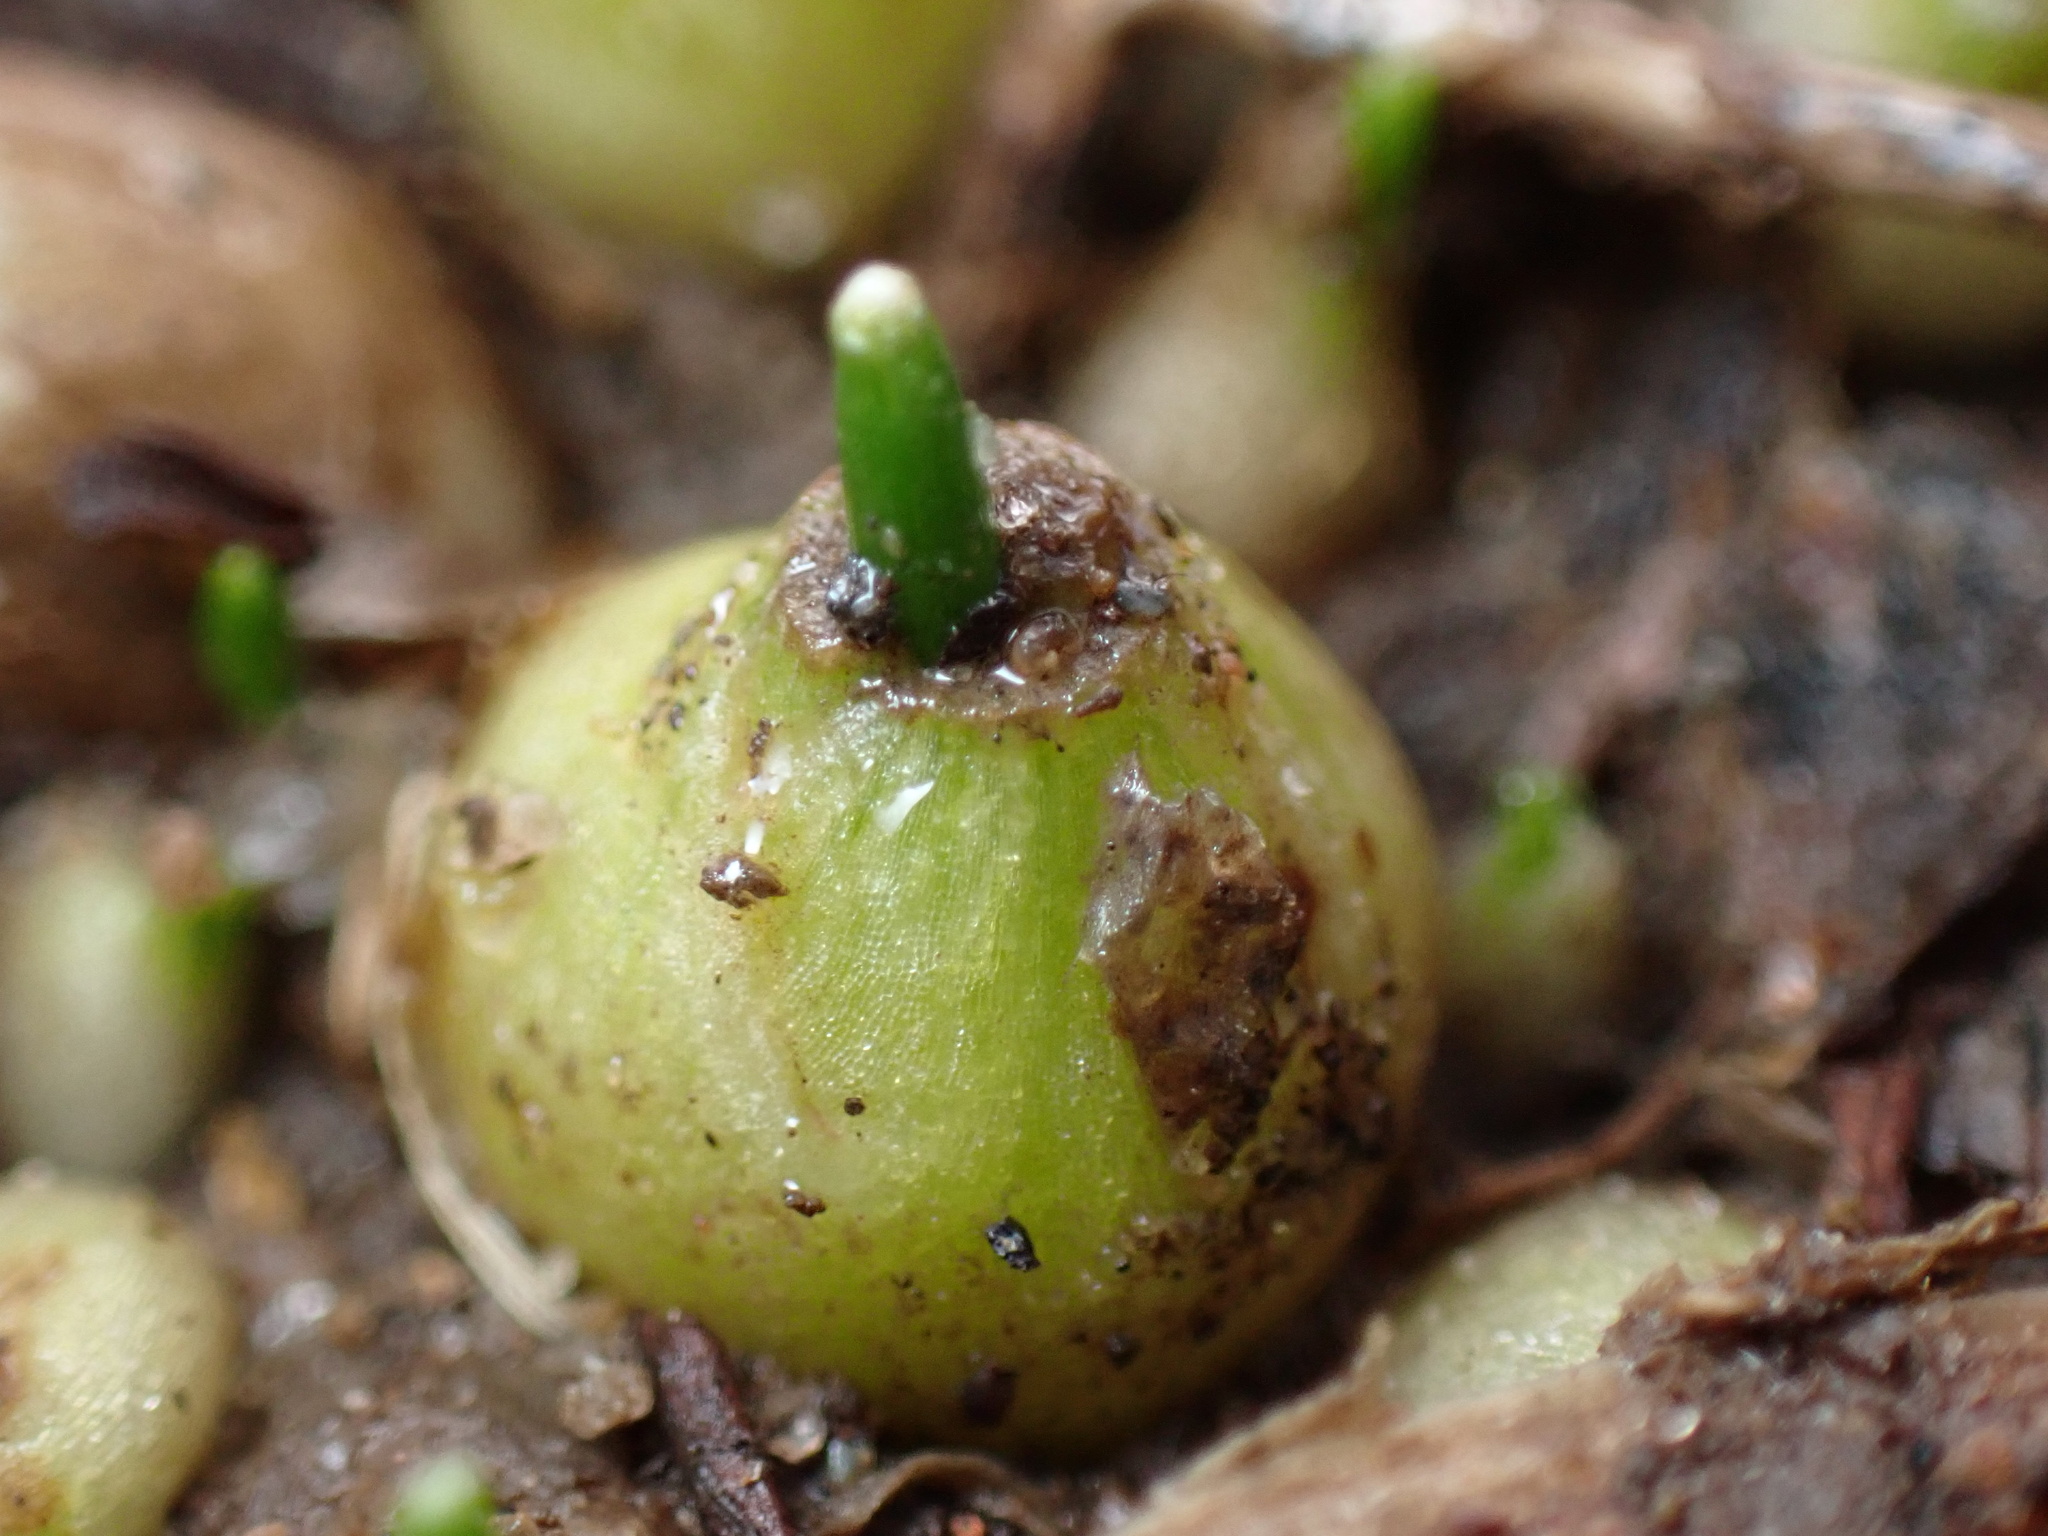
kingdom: Plantae
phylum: Tracheophyta
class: Liliopsida
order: Asparagales
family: Asparagaceae
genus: Ornithogalum
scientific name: Ornithogalum umbellatum
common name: Garden star-of-bethlehem
